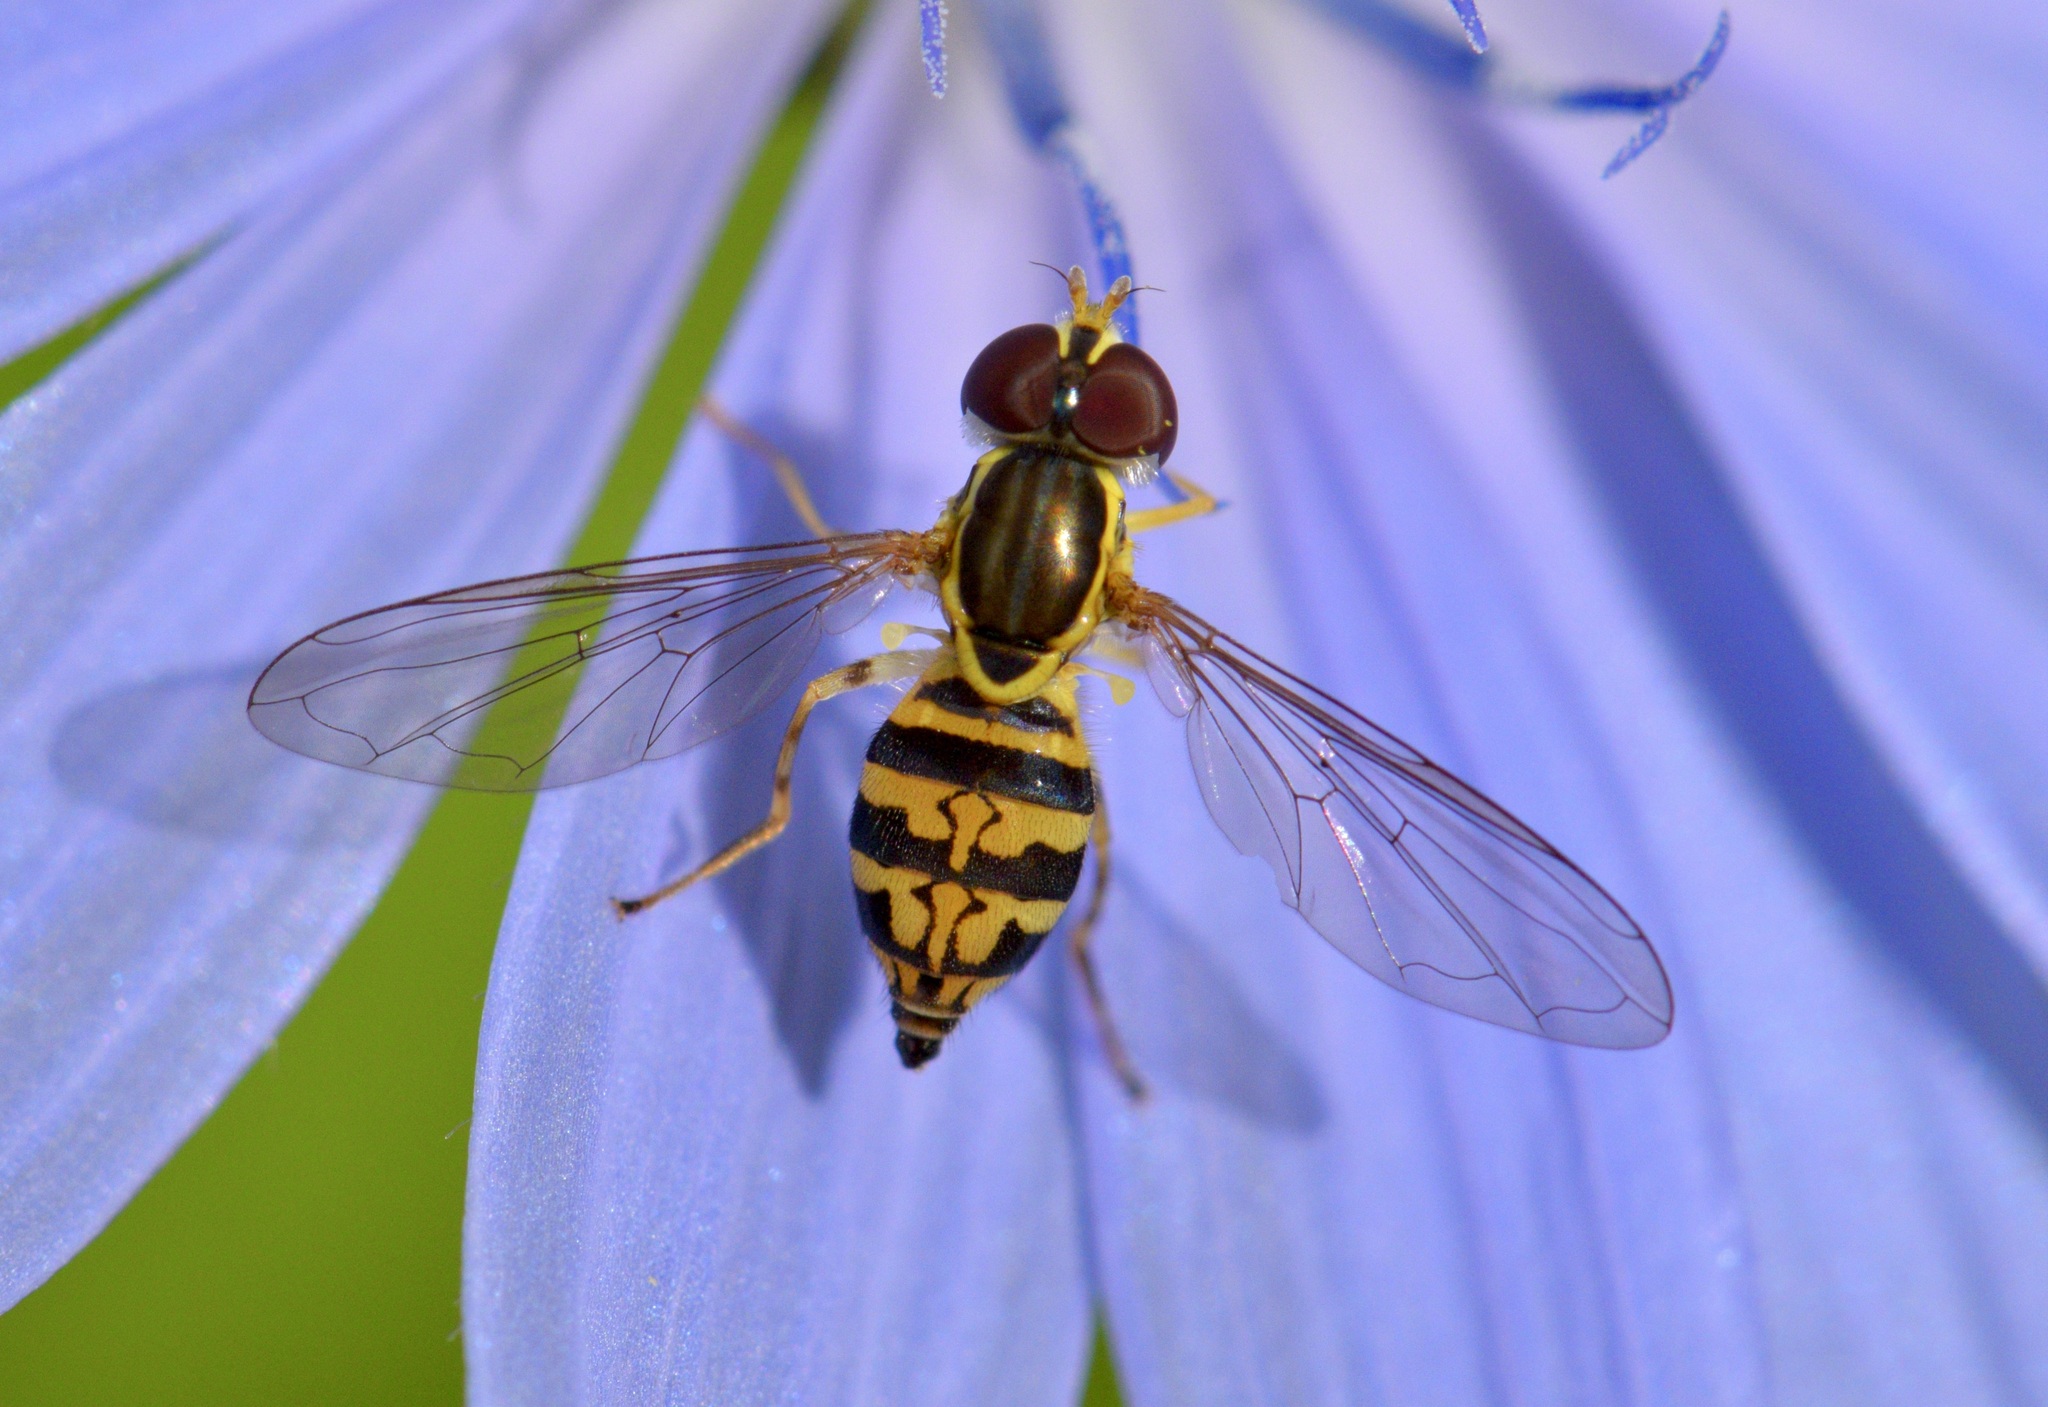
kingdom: Animalia
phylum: Arthropoda
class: Insecta
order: Diptera
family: Syrphidae
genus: Toxomerus
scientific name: Toxomerus geminatus
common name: Eastern calligrapher
